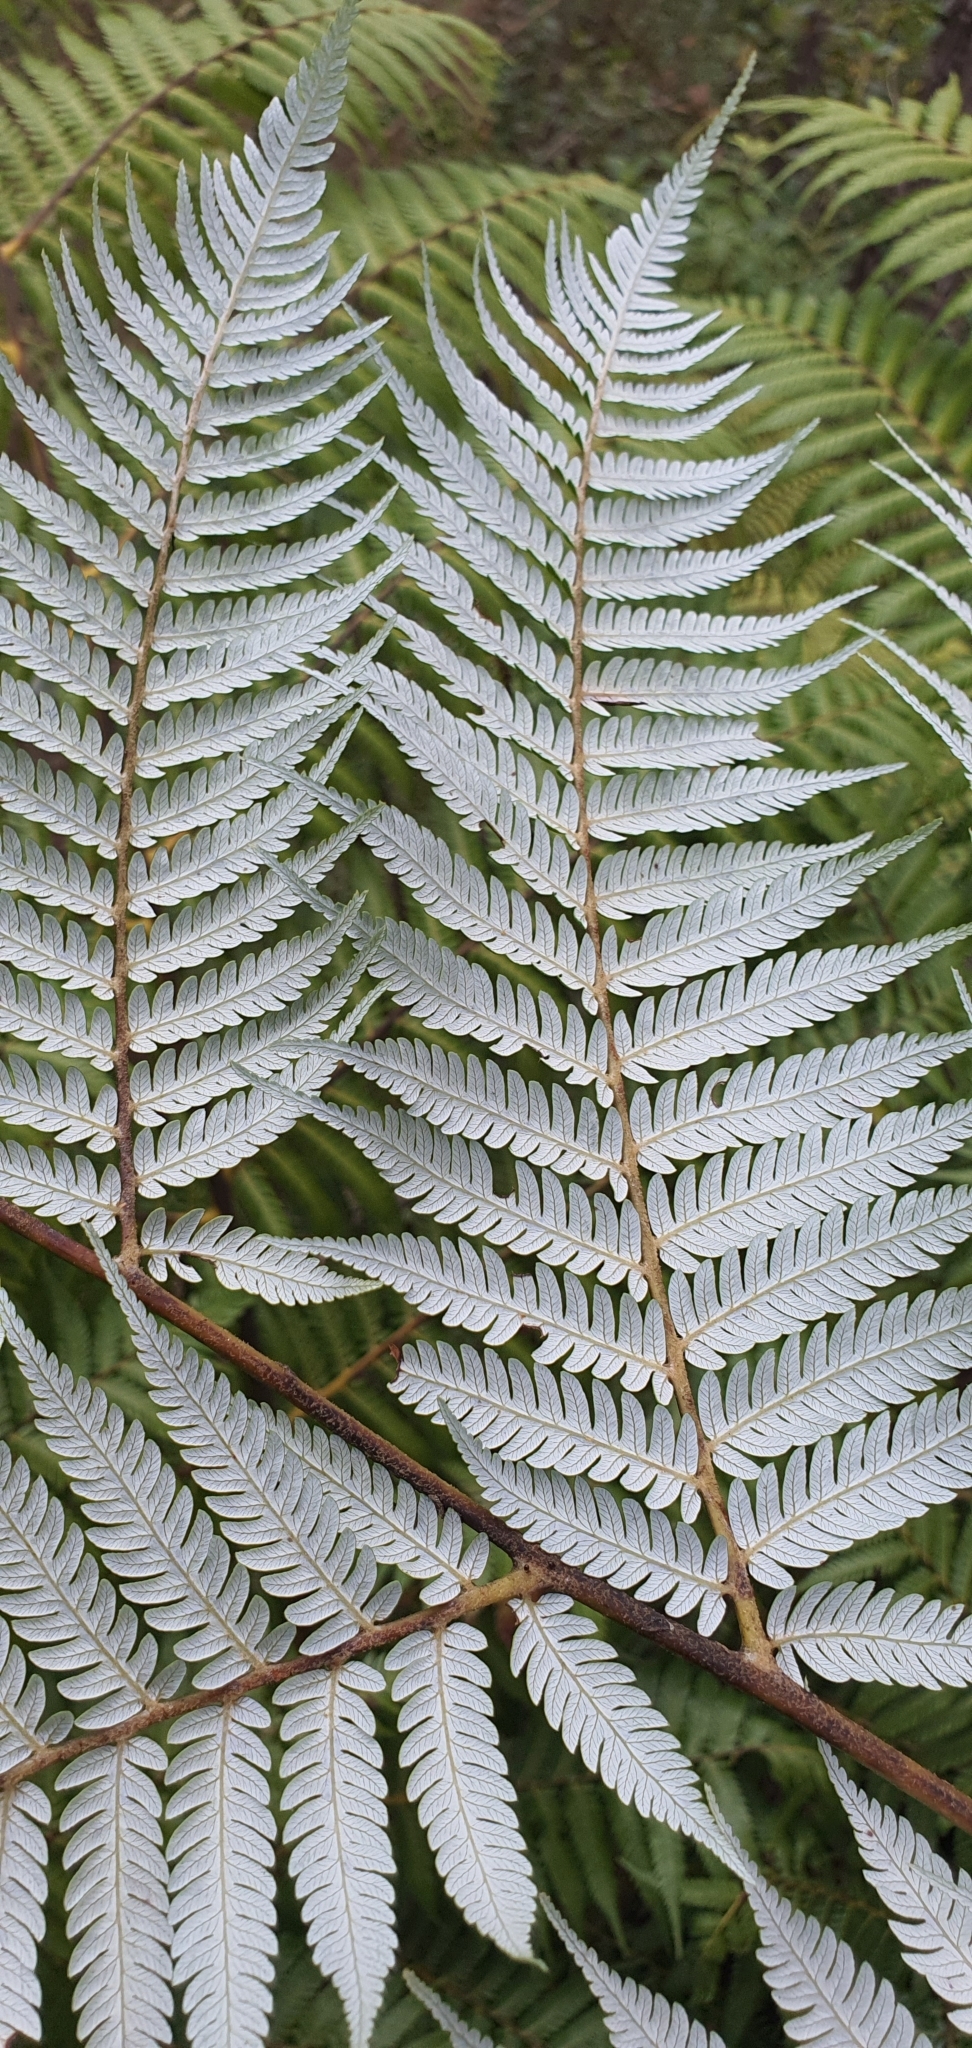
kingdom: Plantae
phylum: Tracheophyta
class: Polypodiopsida
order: Cyatheales
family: Cyatheaceae
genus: Alsophila
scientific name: Alsophila dealbata
